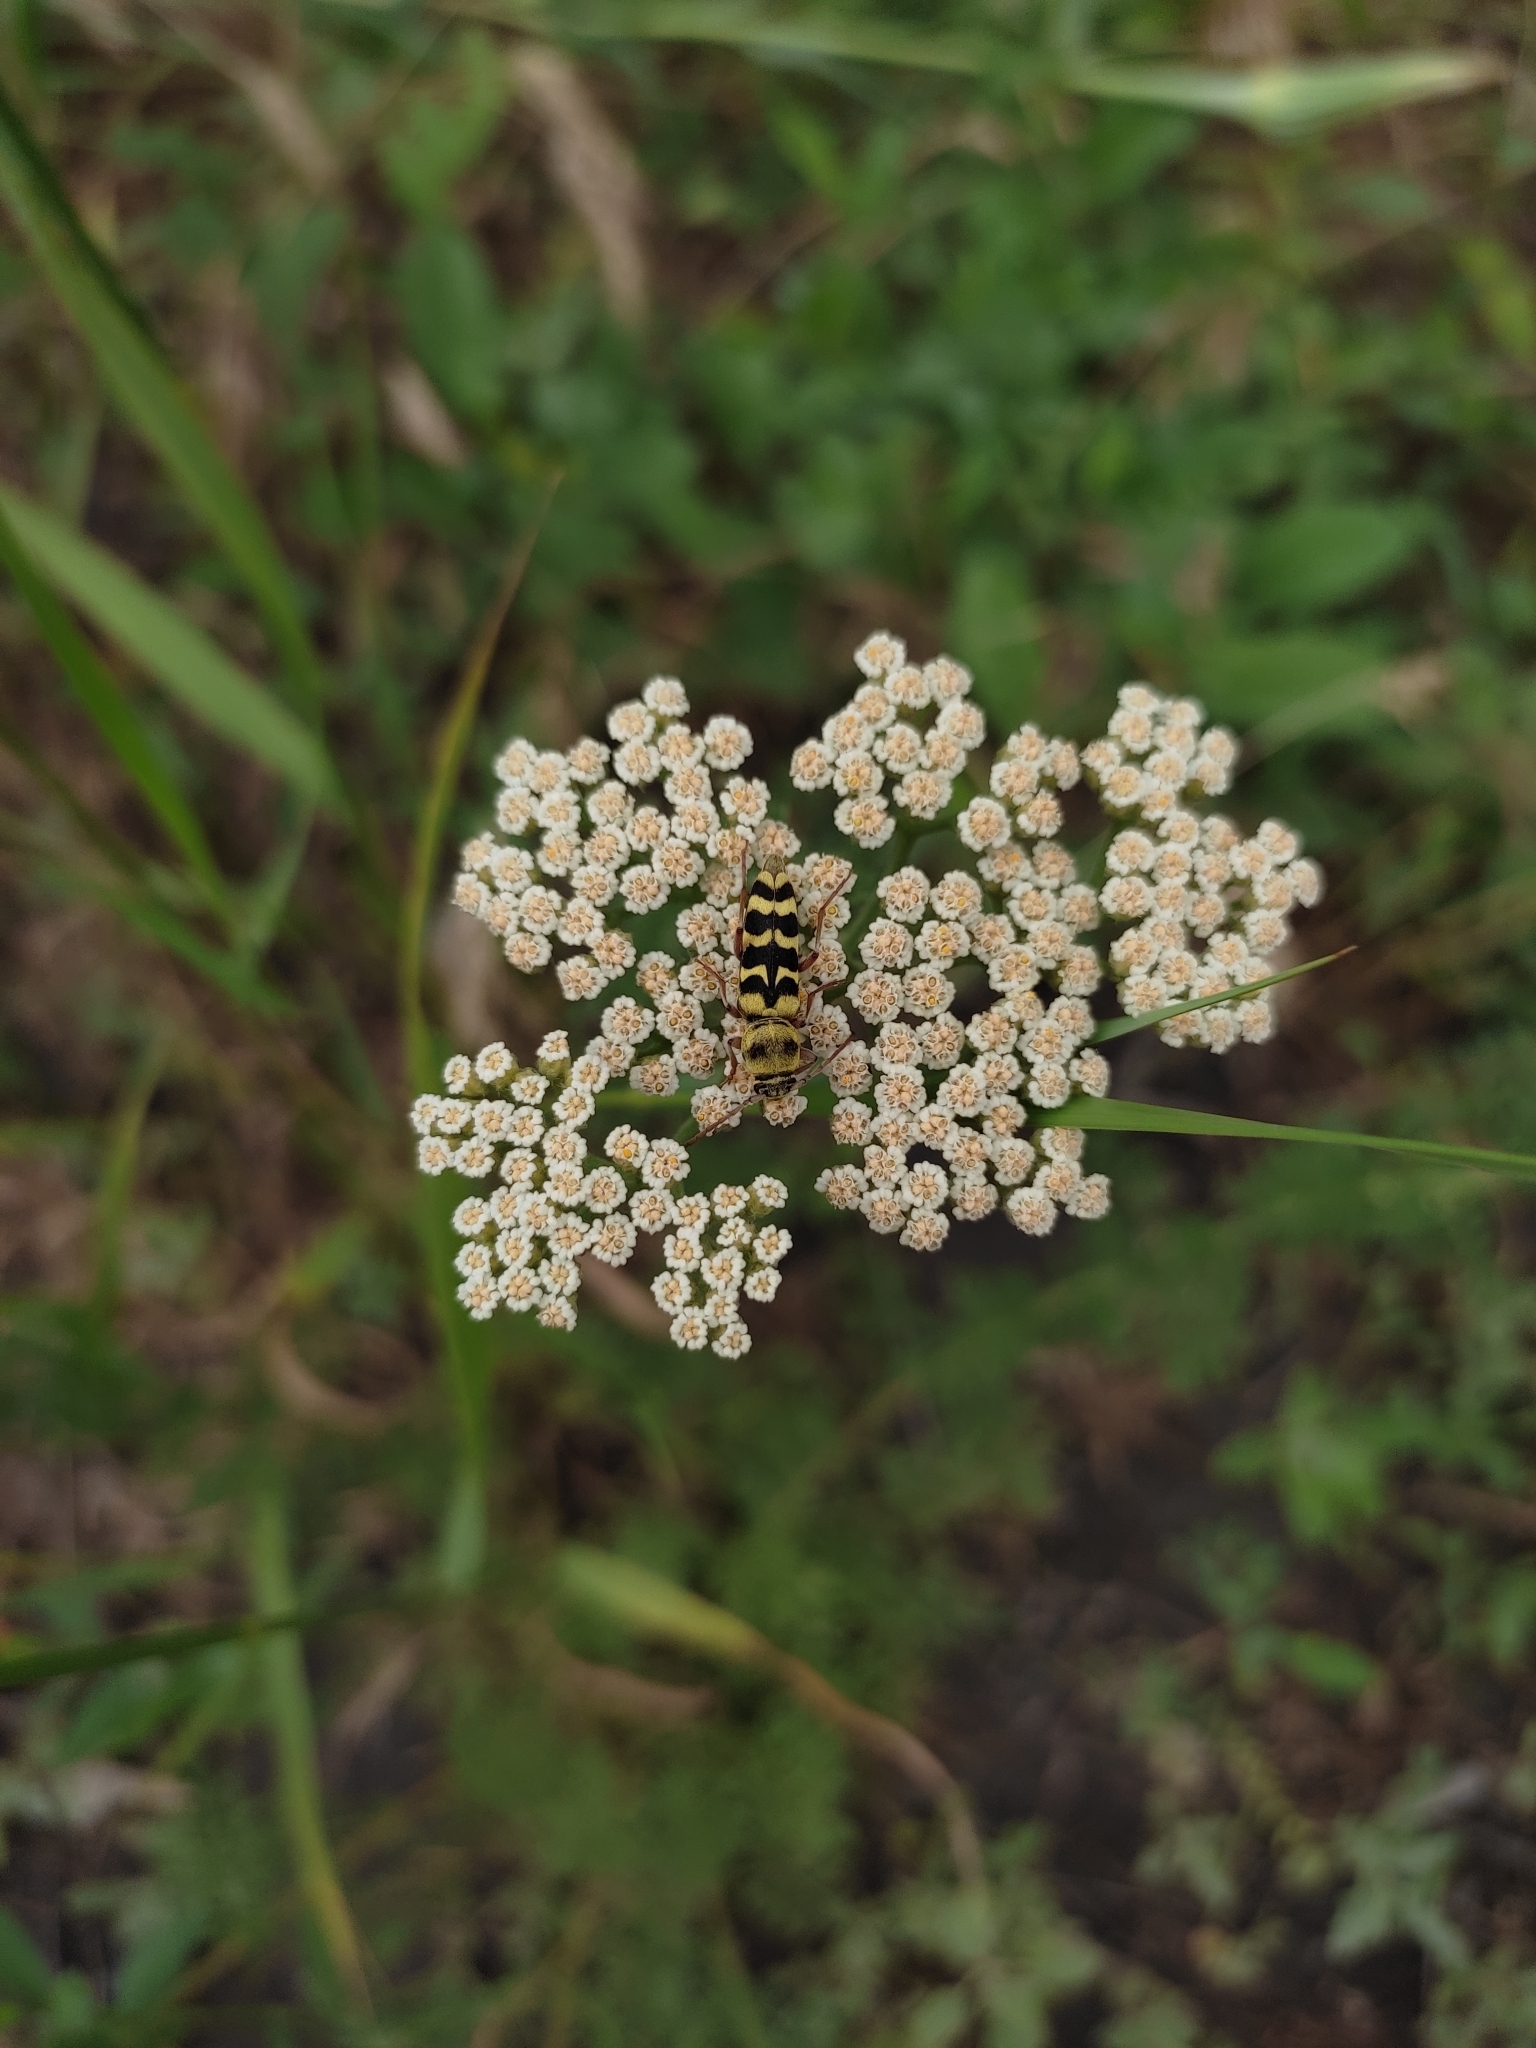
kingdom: Animalia
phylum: Arthropoda
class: Insecta
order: Coleoptera
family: Cerambycidae
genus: Plagionotus
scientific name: Plagionotus floralis
